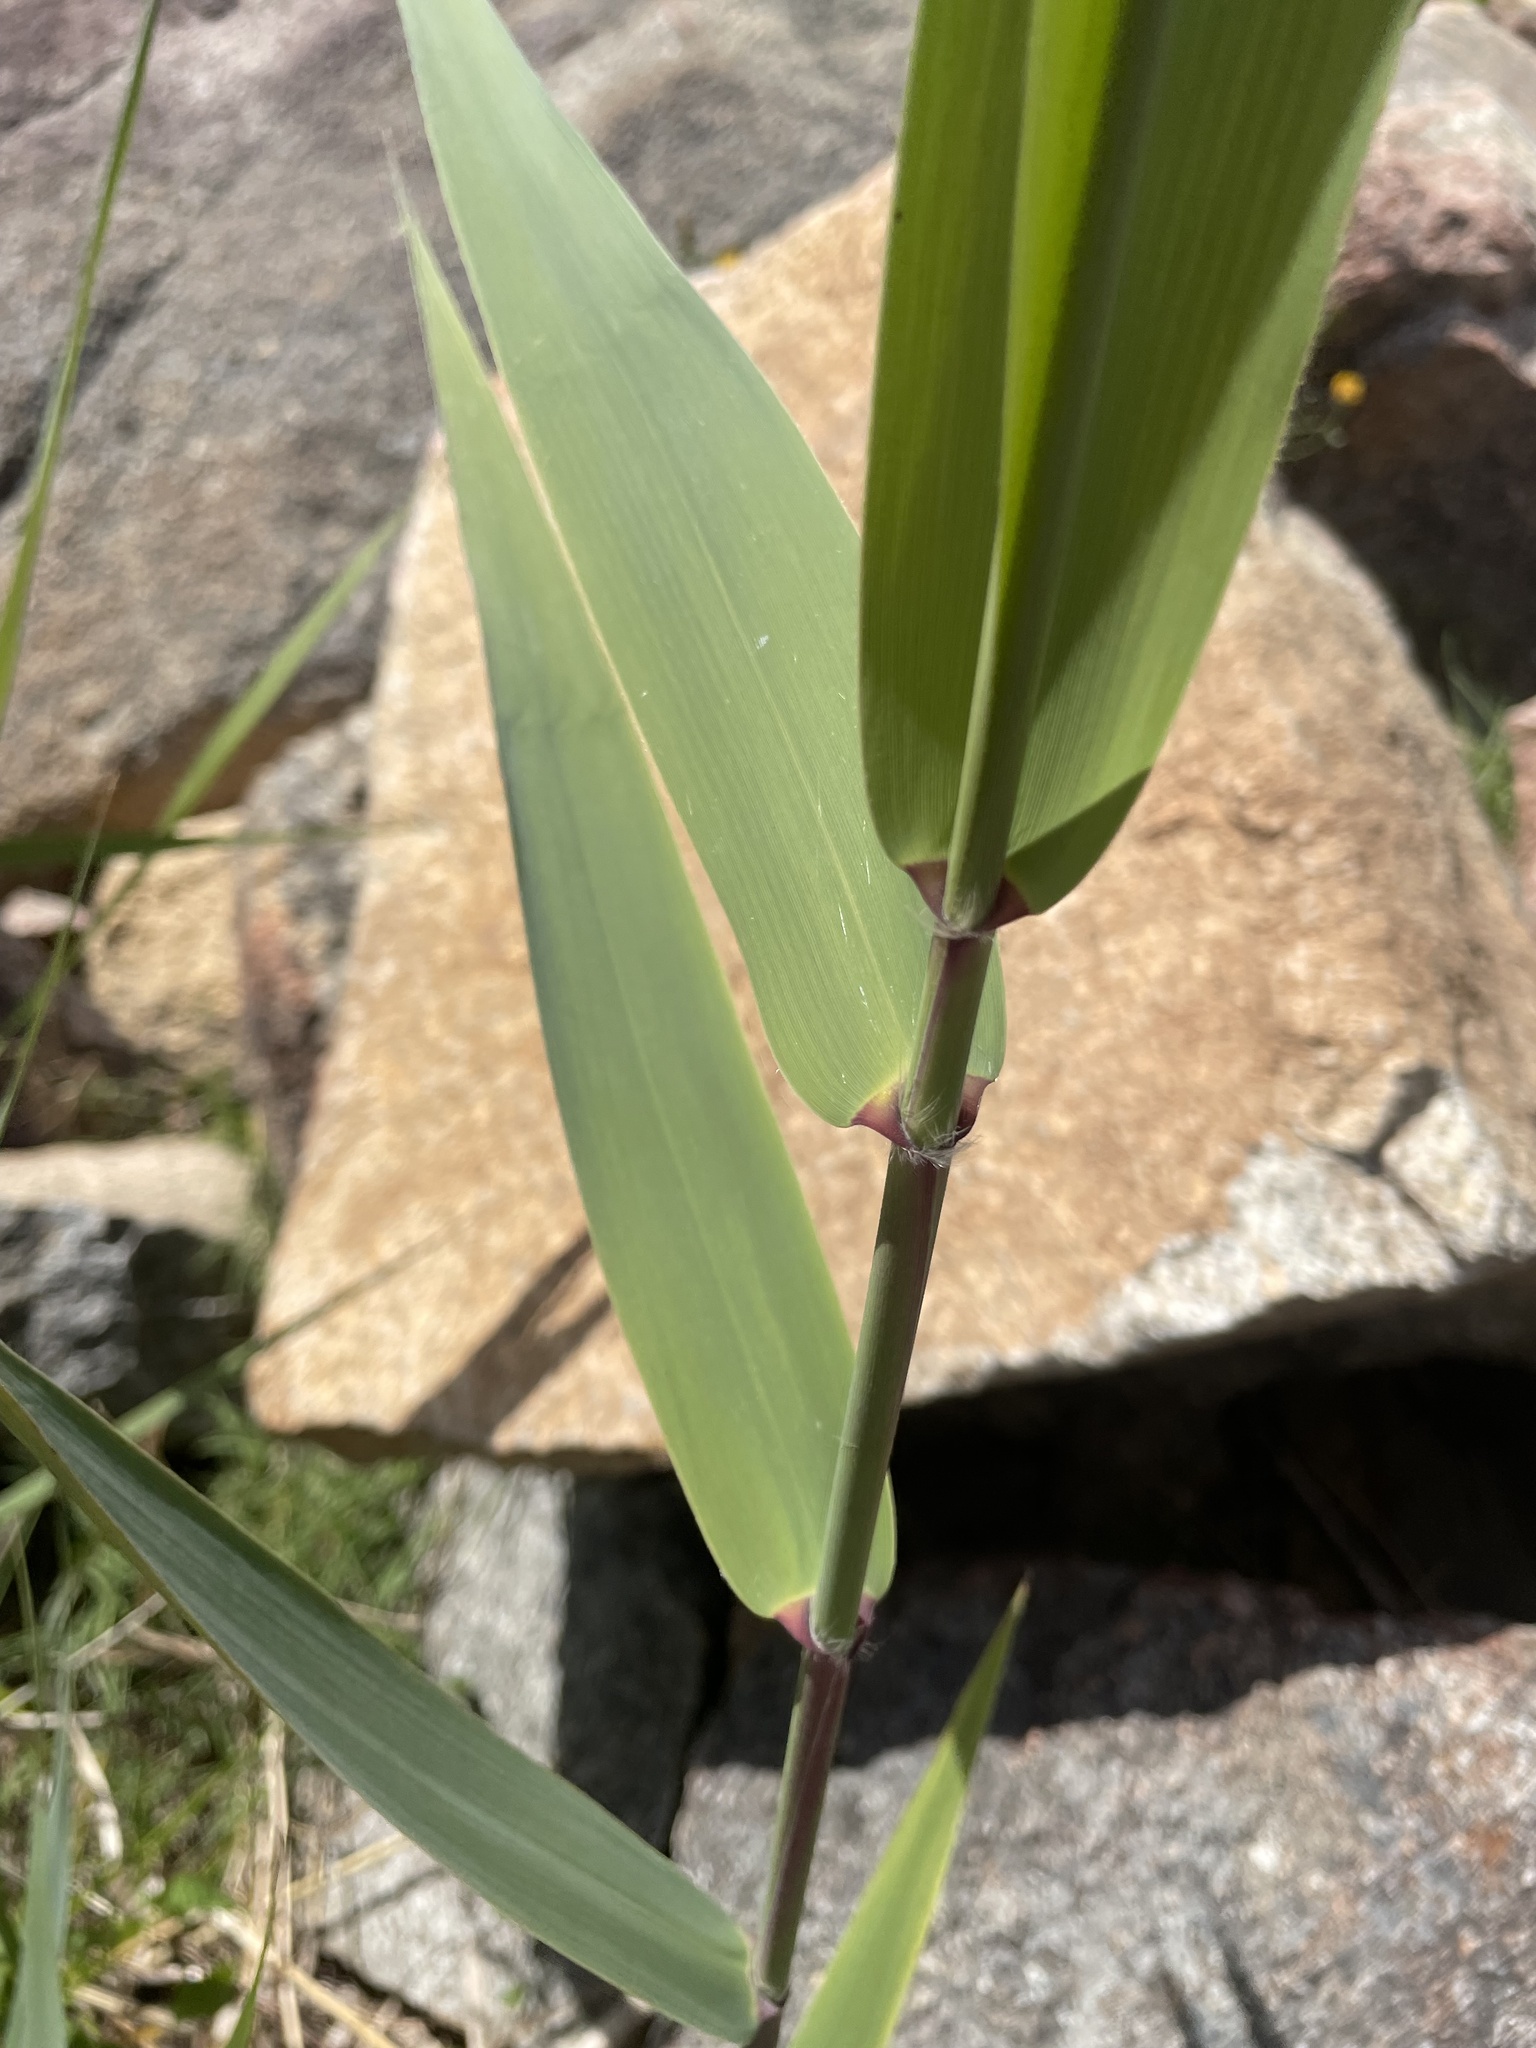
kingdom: Plantae
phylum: Tracheophyta
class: Liliopsida
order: Poales
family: Poaceae
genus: Phragmites
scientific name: Phragmites australis
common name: Common reed
